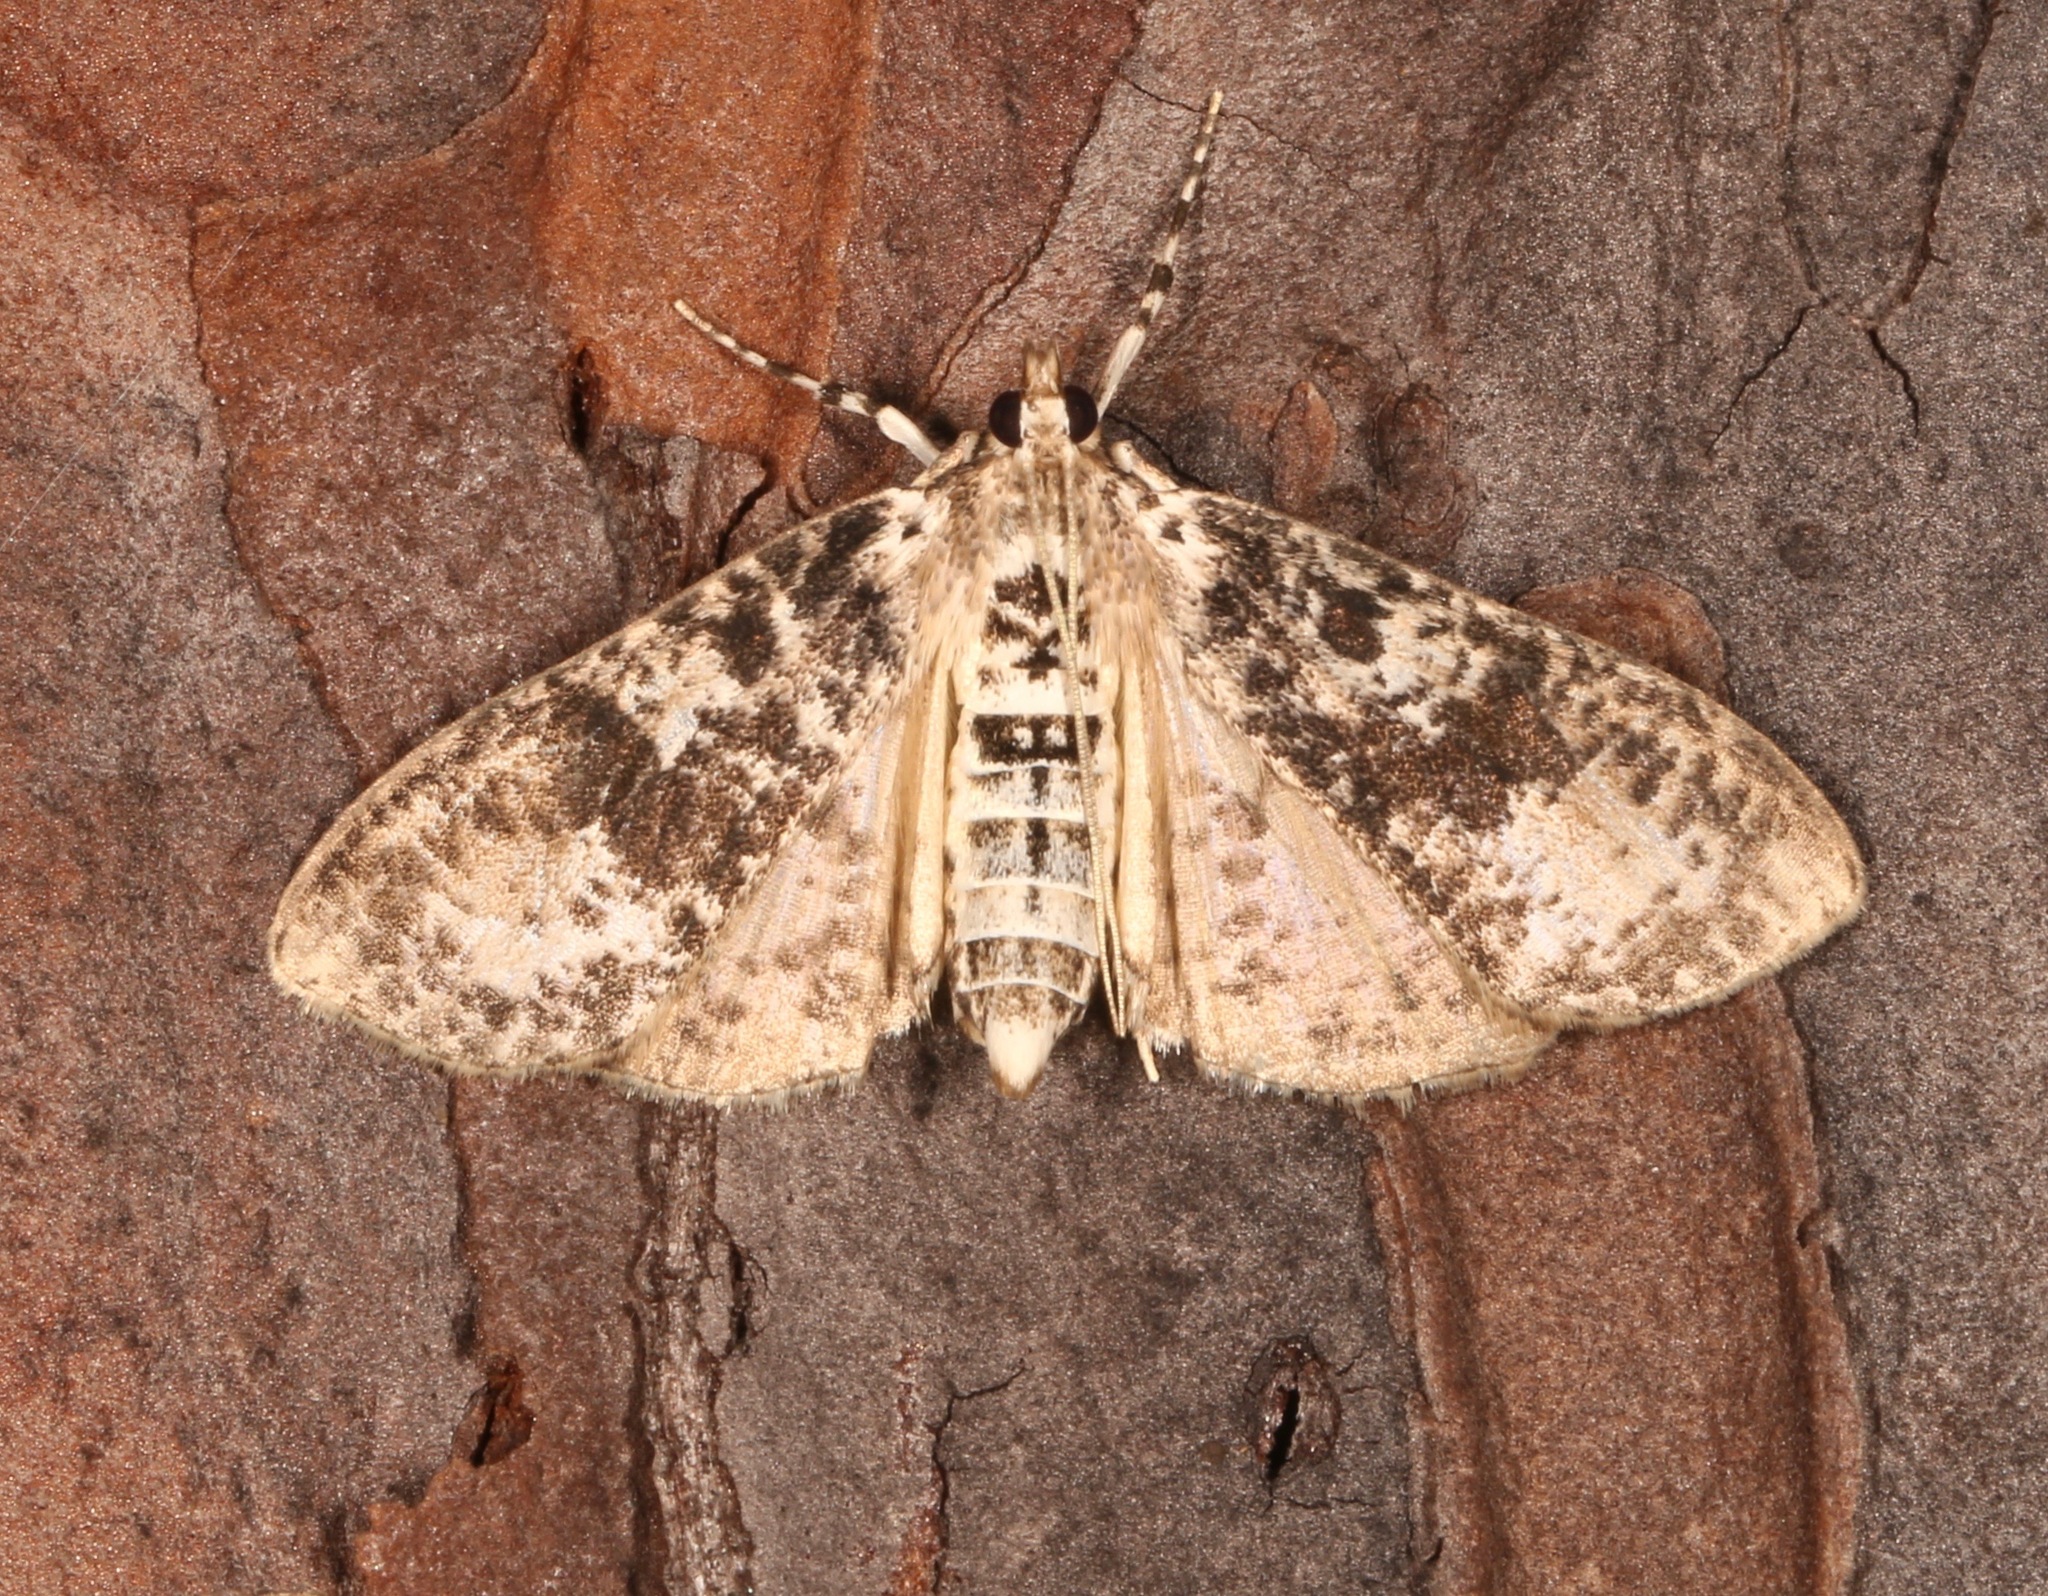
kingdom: Animalia
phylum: Arthropoda
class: Insecta
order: Lepidoptera
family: Crambidae
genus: Palpita
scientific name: Palpita magniferalis
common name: Splendid palpita moth
